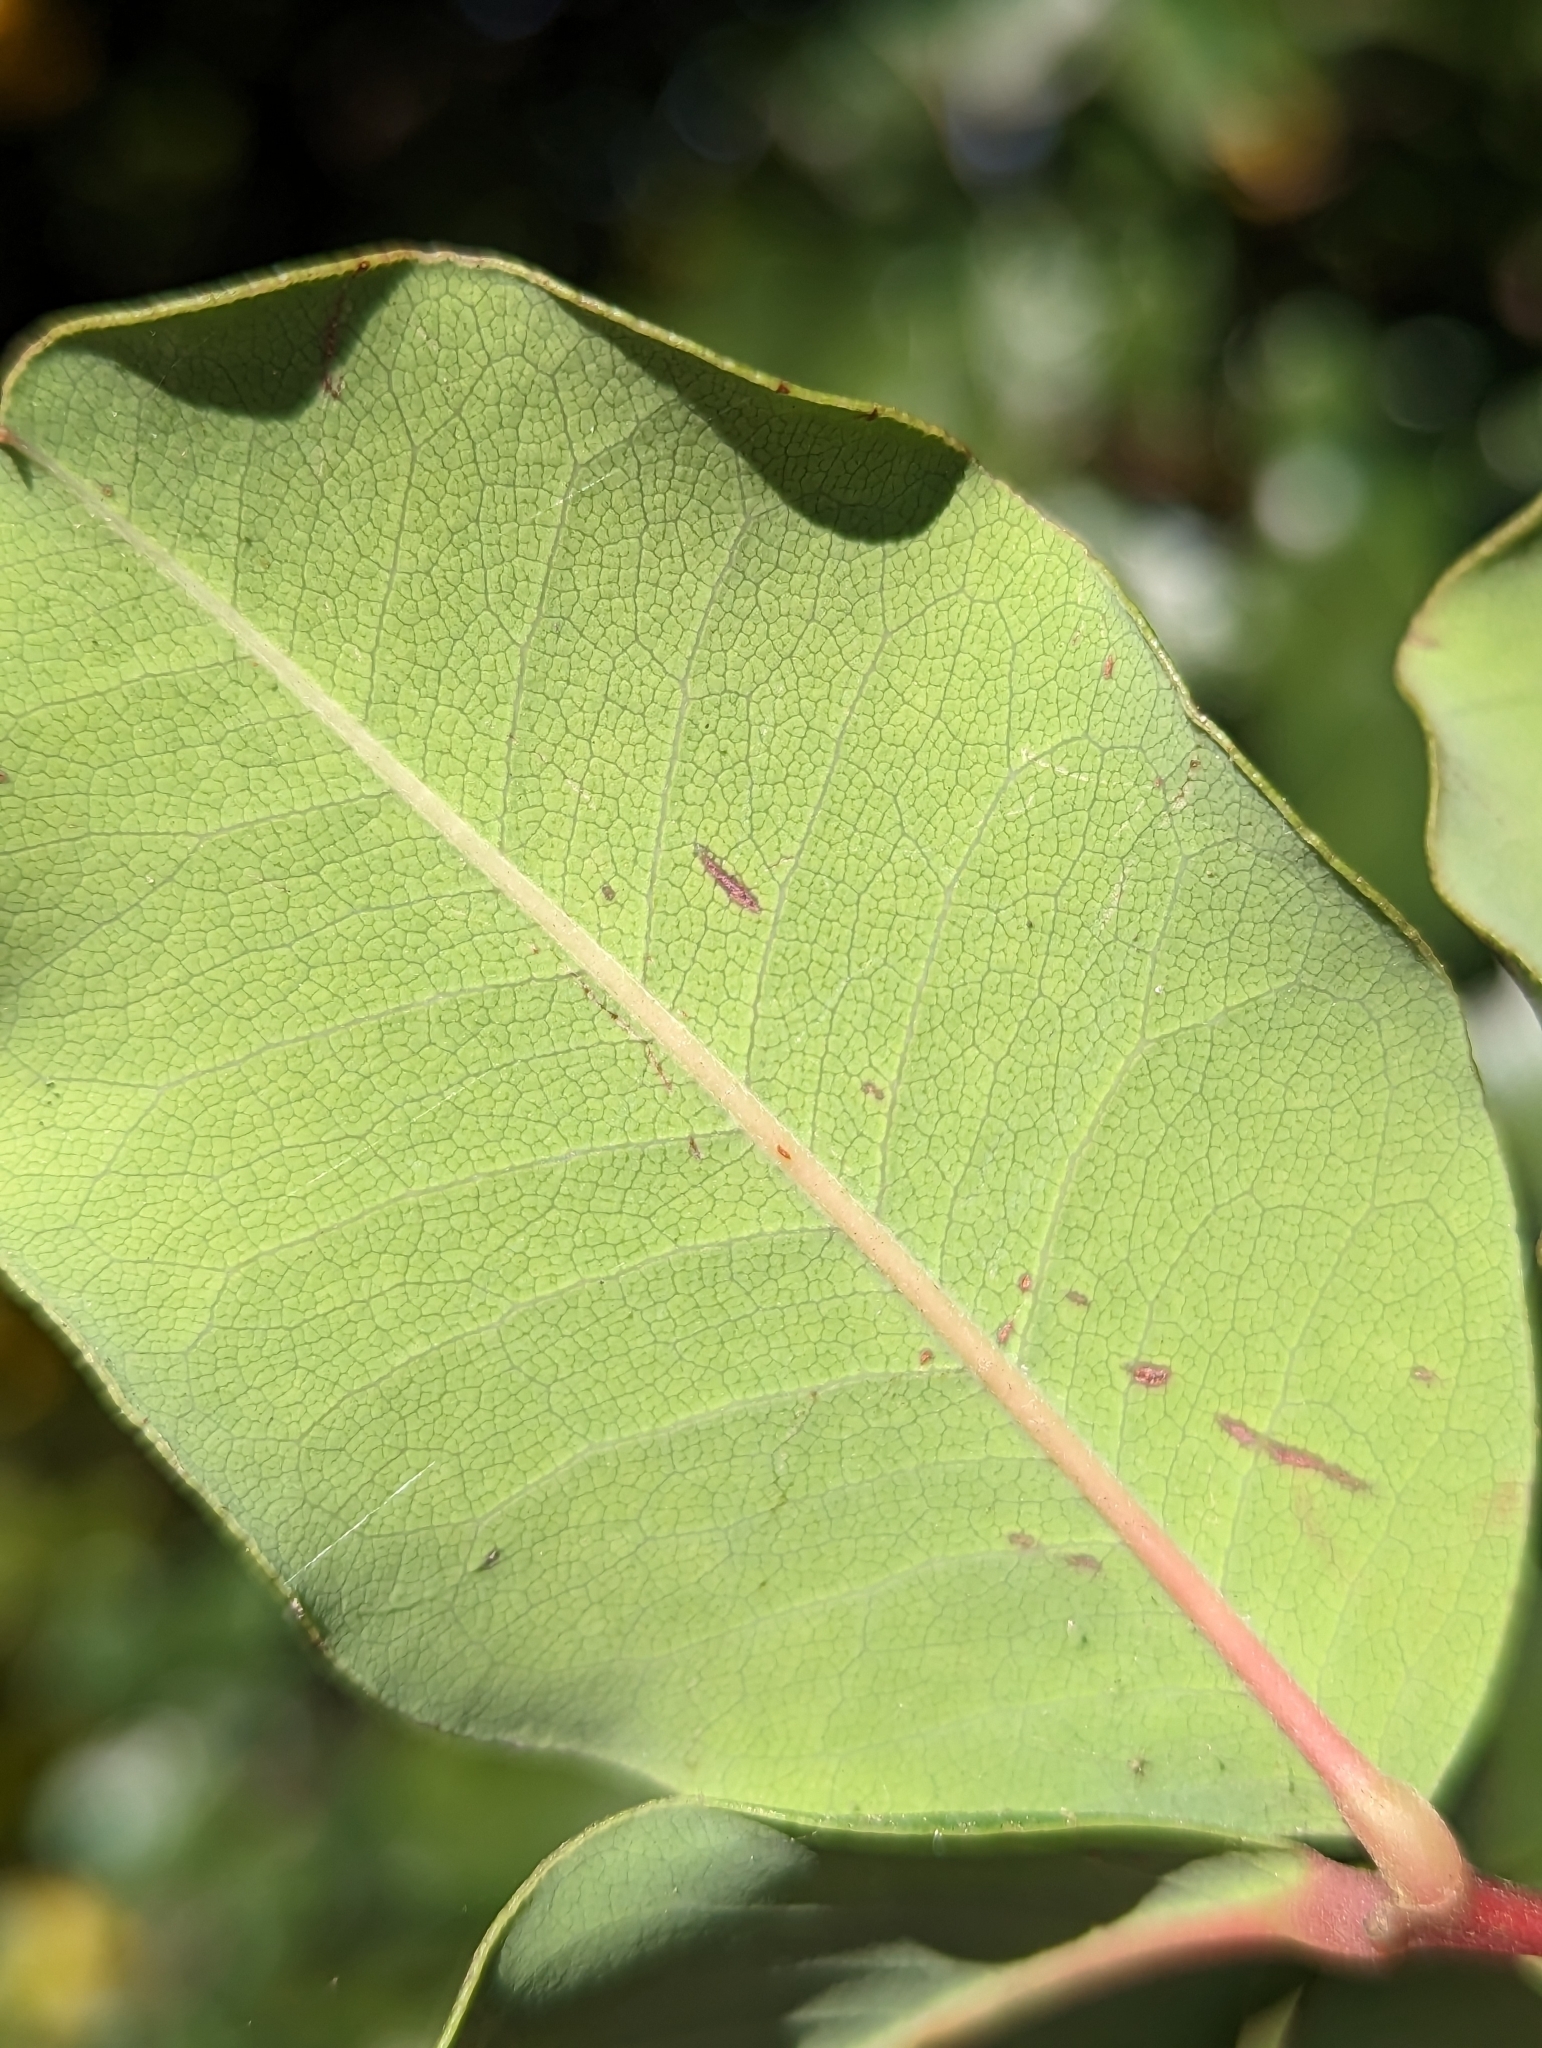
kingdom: Plantae
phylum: Tracheophyta
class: Magnoliopsida
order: Fabales
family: Fabaceae
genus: Ceratonia
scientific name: Ceratonia siliqua
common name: Carob
